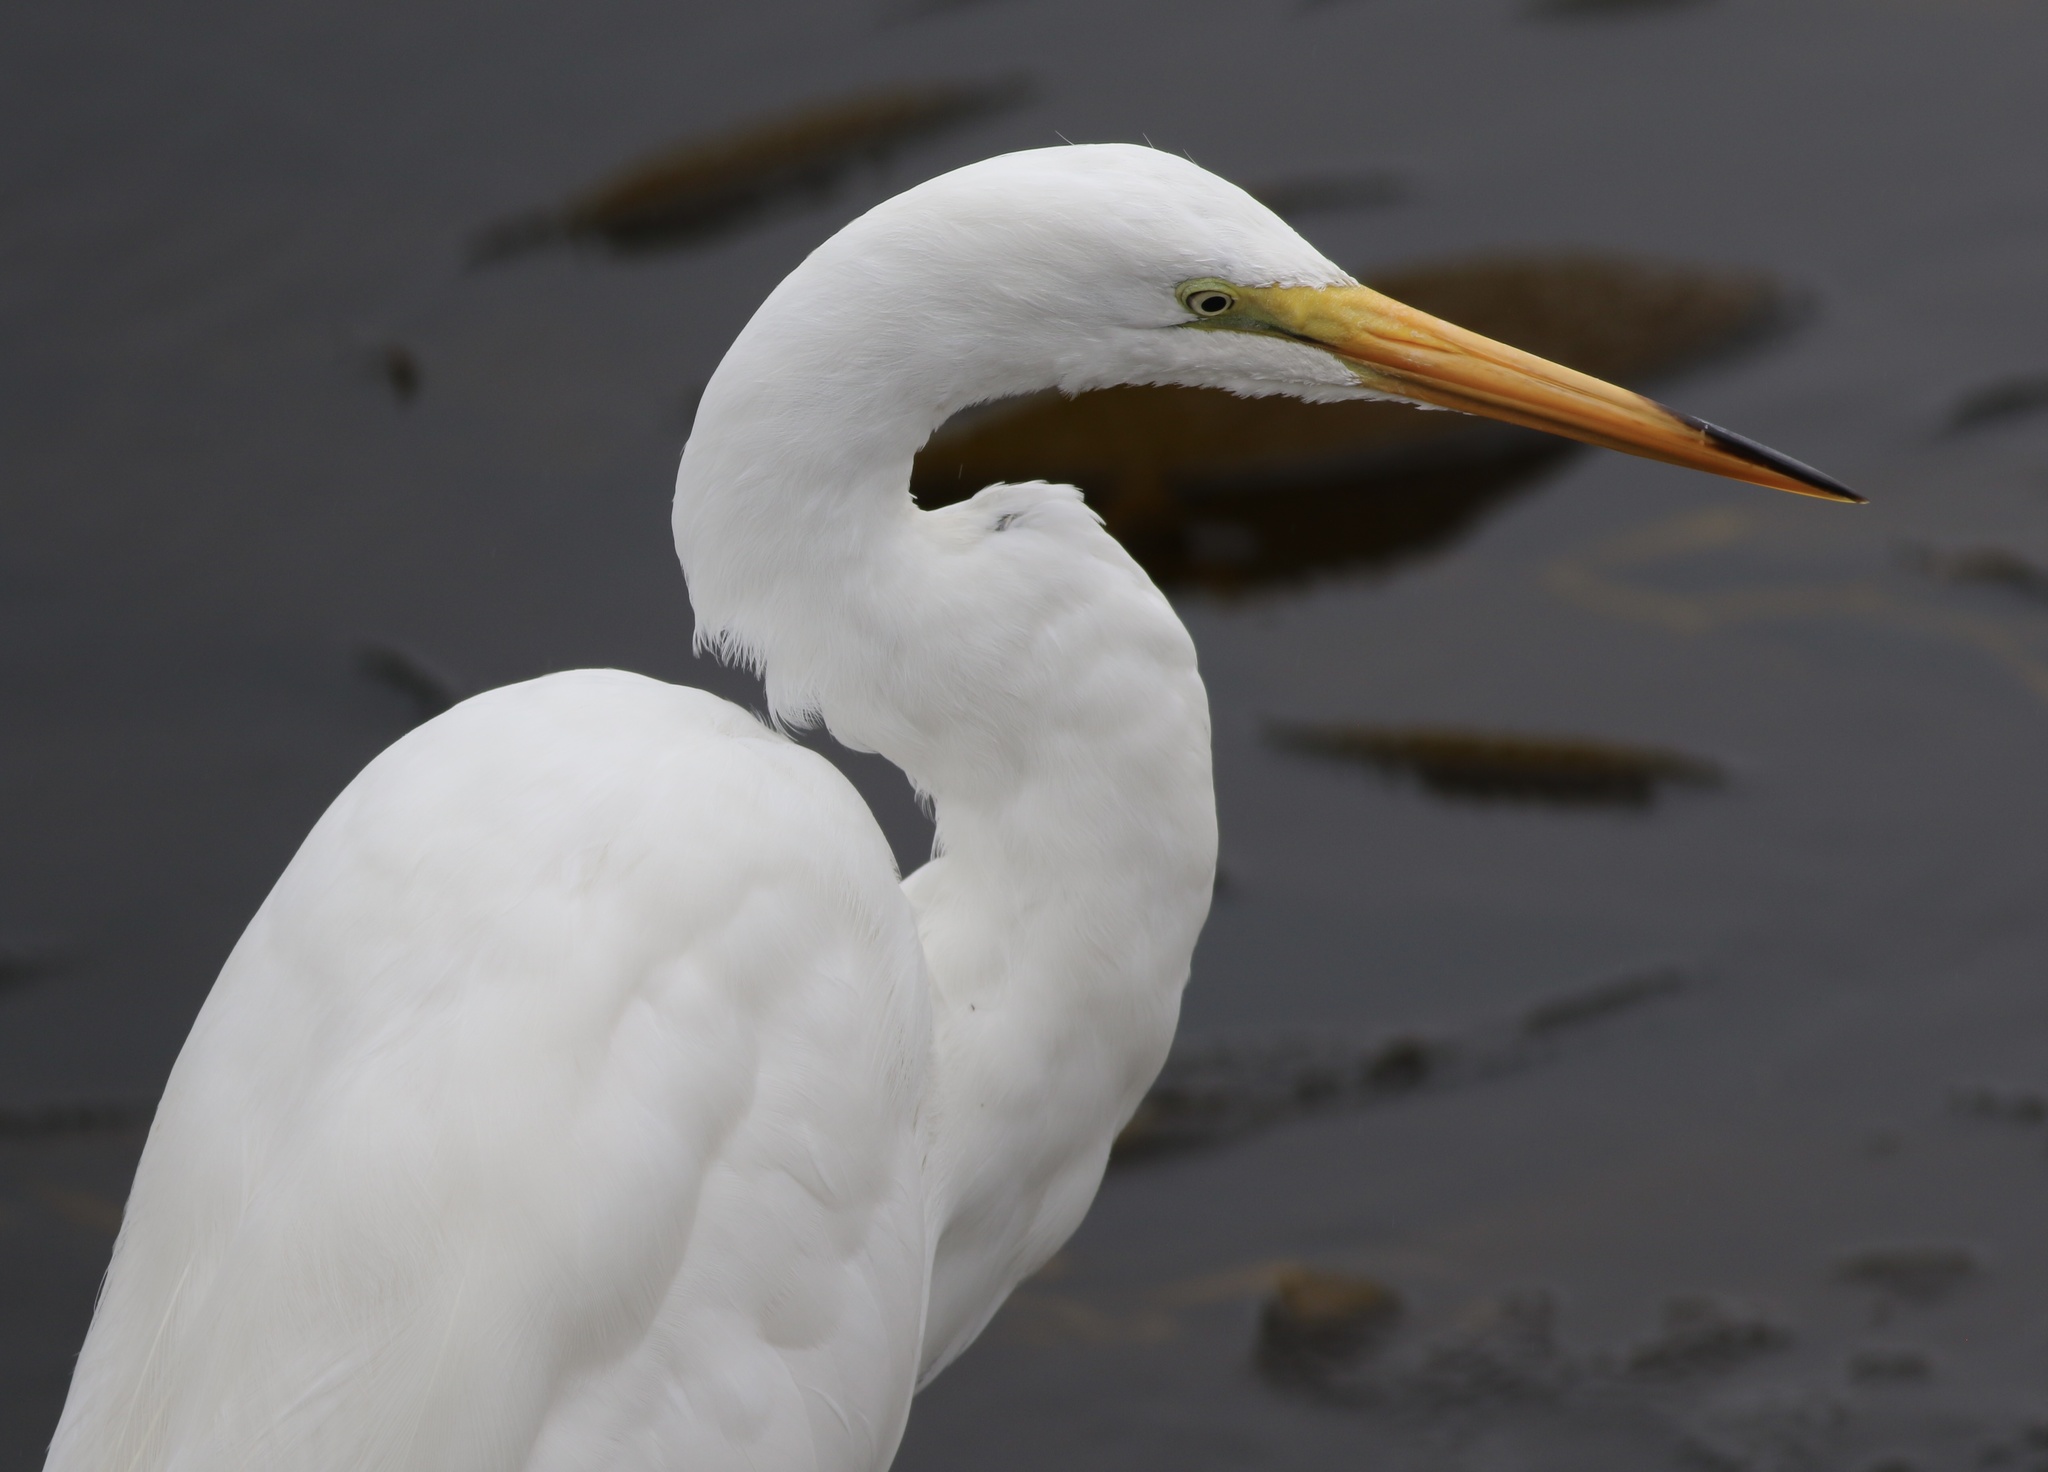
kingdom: Animalia
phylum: Chordata
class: Aves
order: Pelecaniformes
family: Ardeidae
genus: Ardea
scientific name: Ardea alba
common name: Great egret
